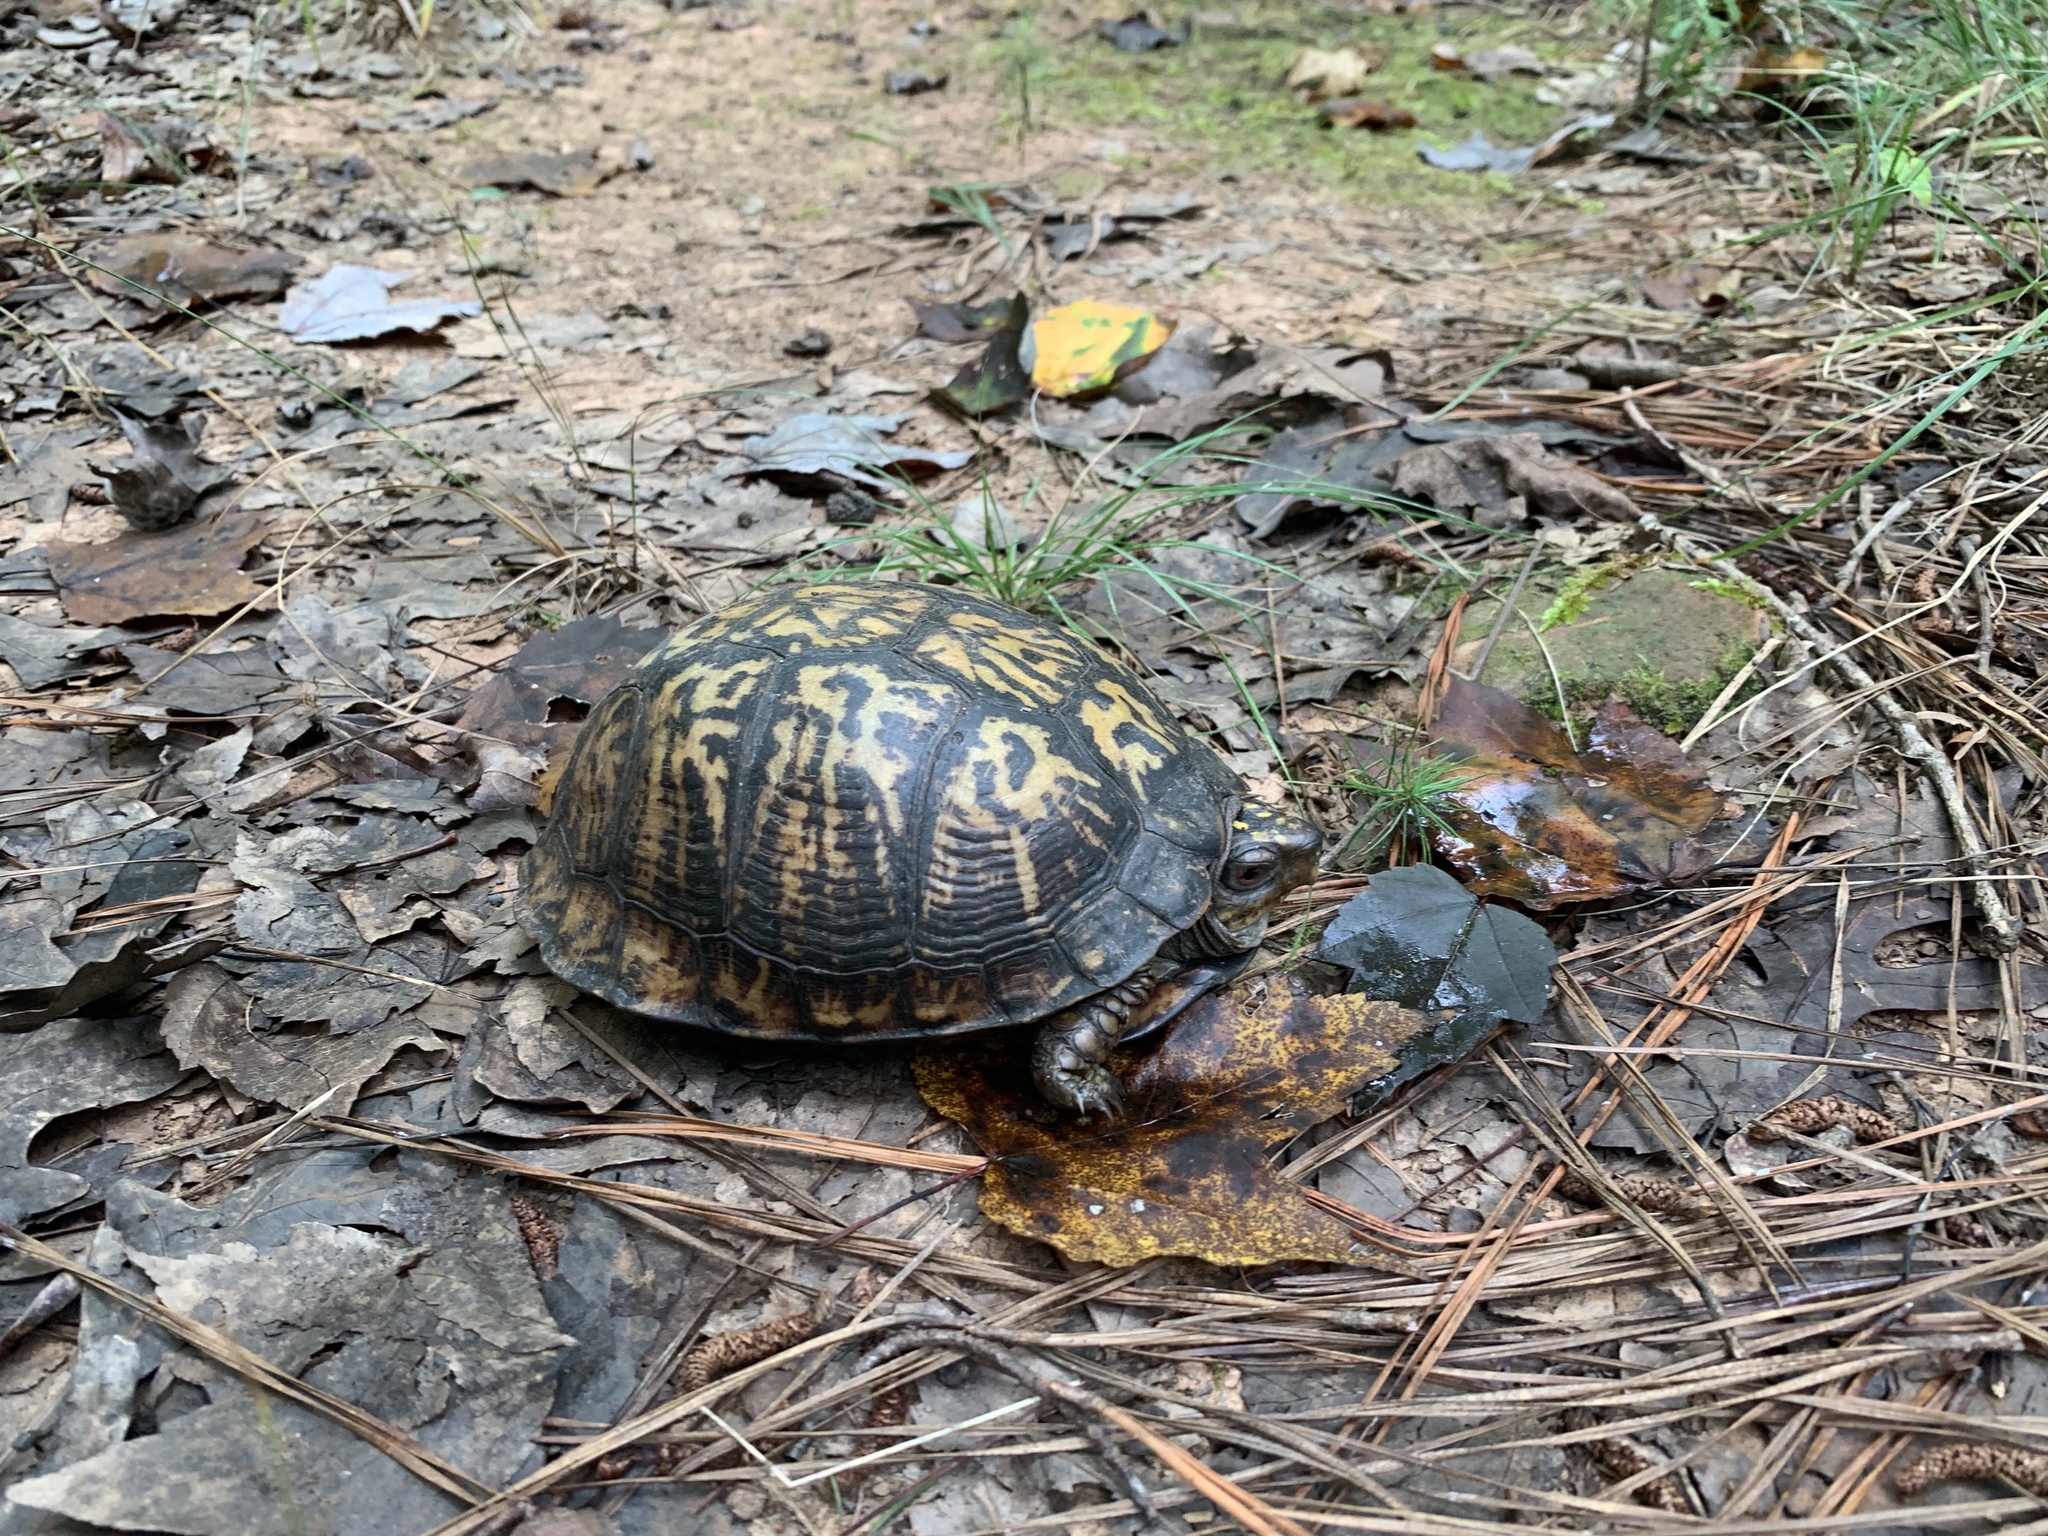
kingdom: Animalia
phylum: Chordata
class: Testudines
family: Emydidae
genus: Terrapene
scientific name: Terrapene carolina
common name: Common box turtle
